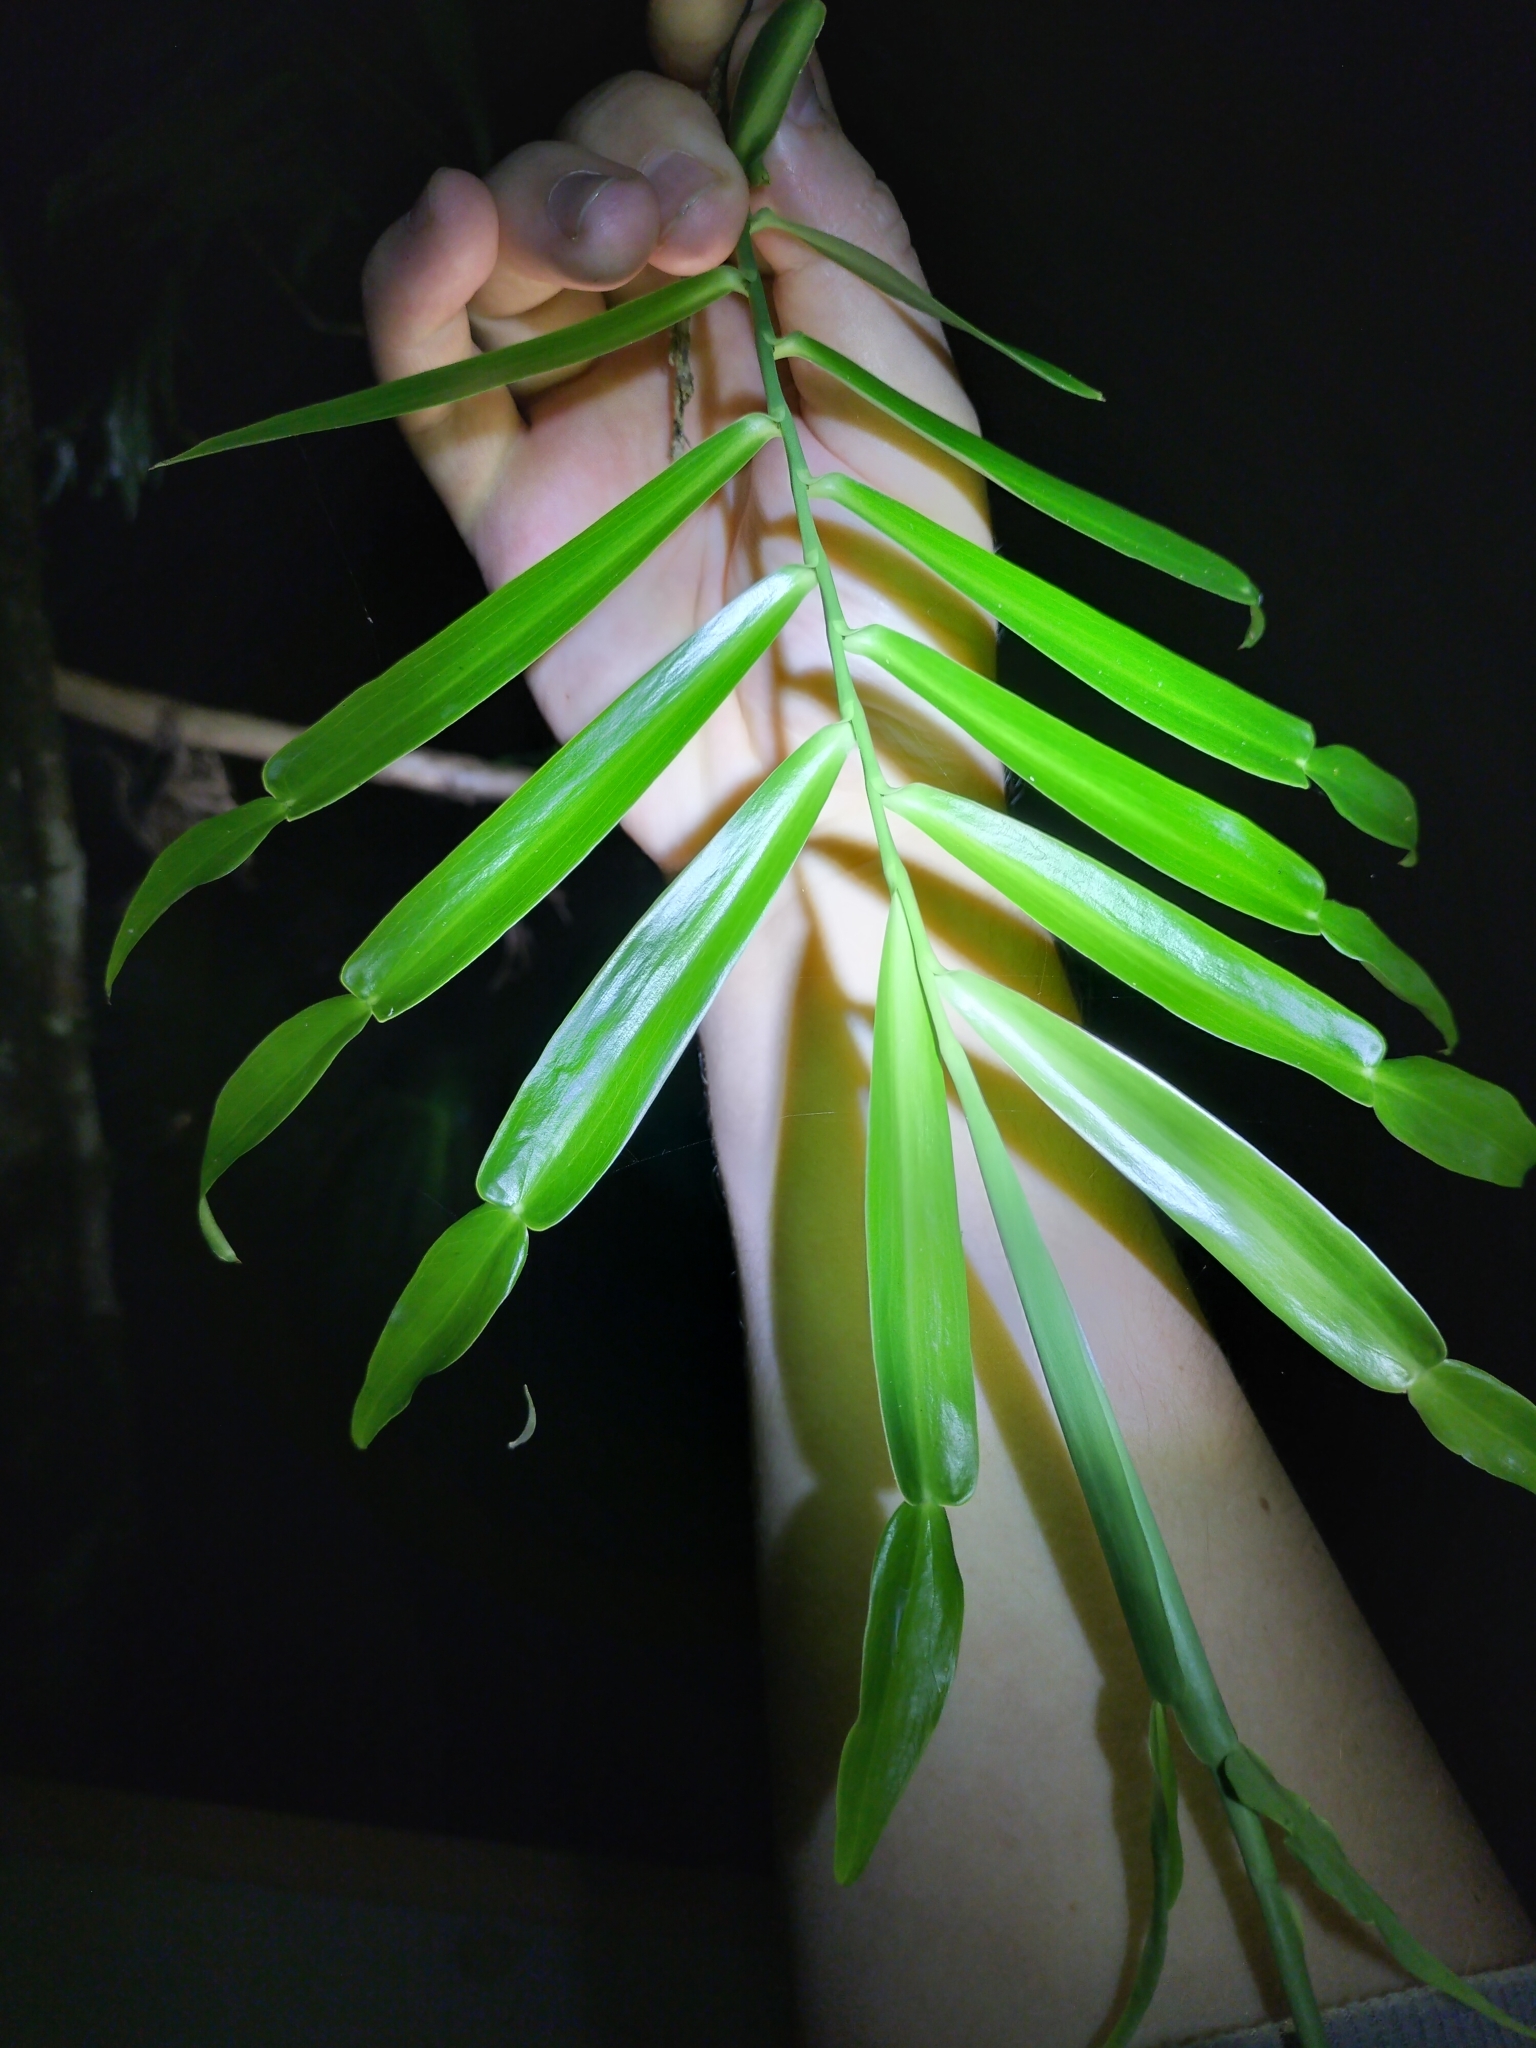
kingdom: Plantae
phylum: Tracheophyta
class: Liliopsida
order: Alismatales
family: Araceae
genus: Pothos
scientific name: Pothos longipes
